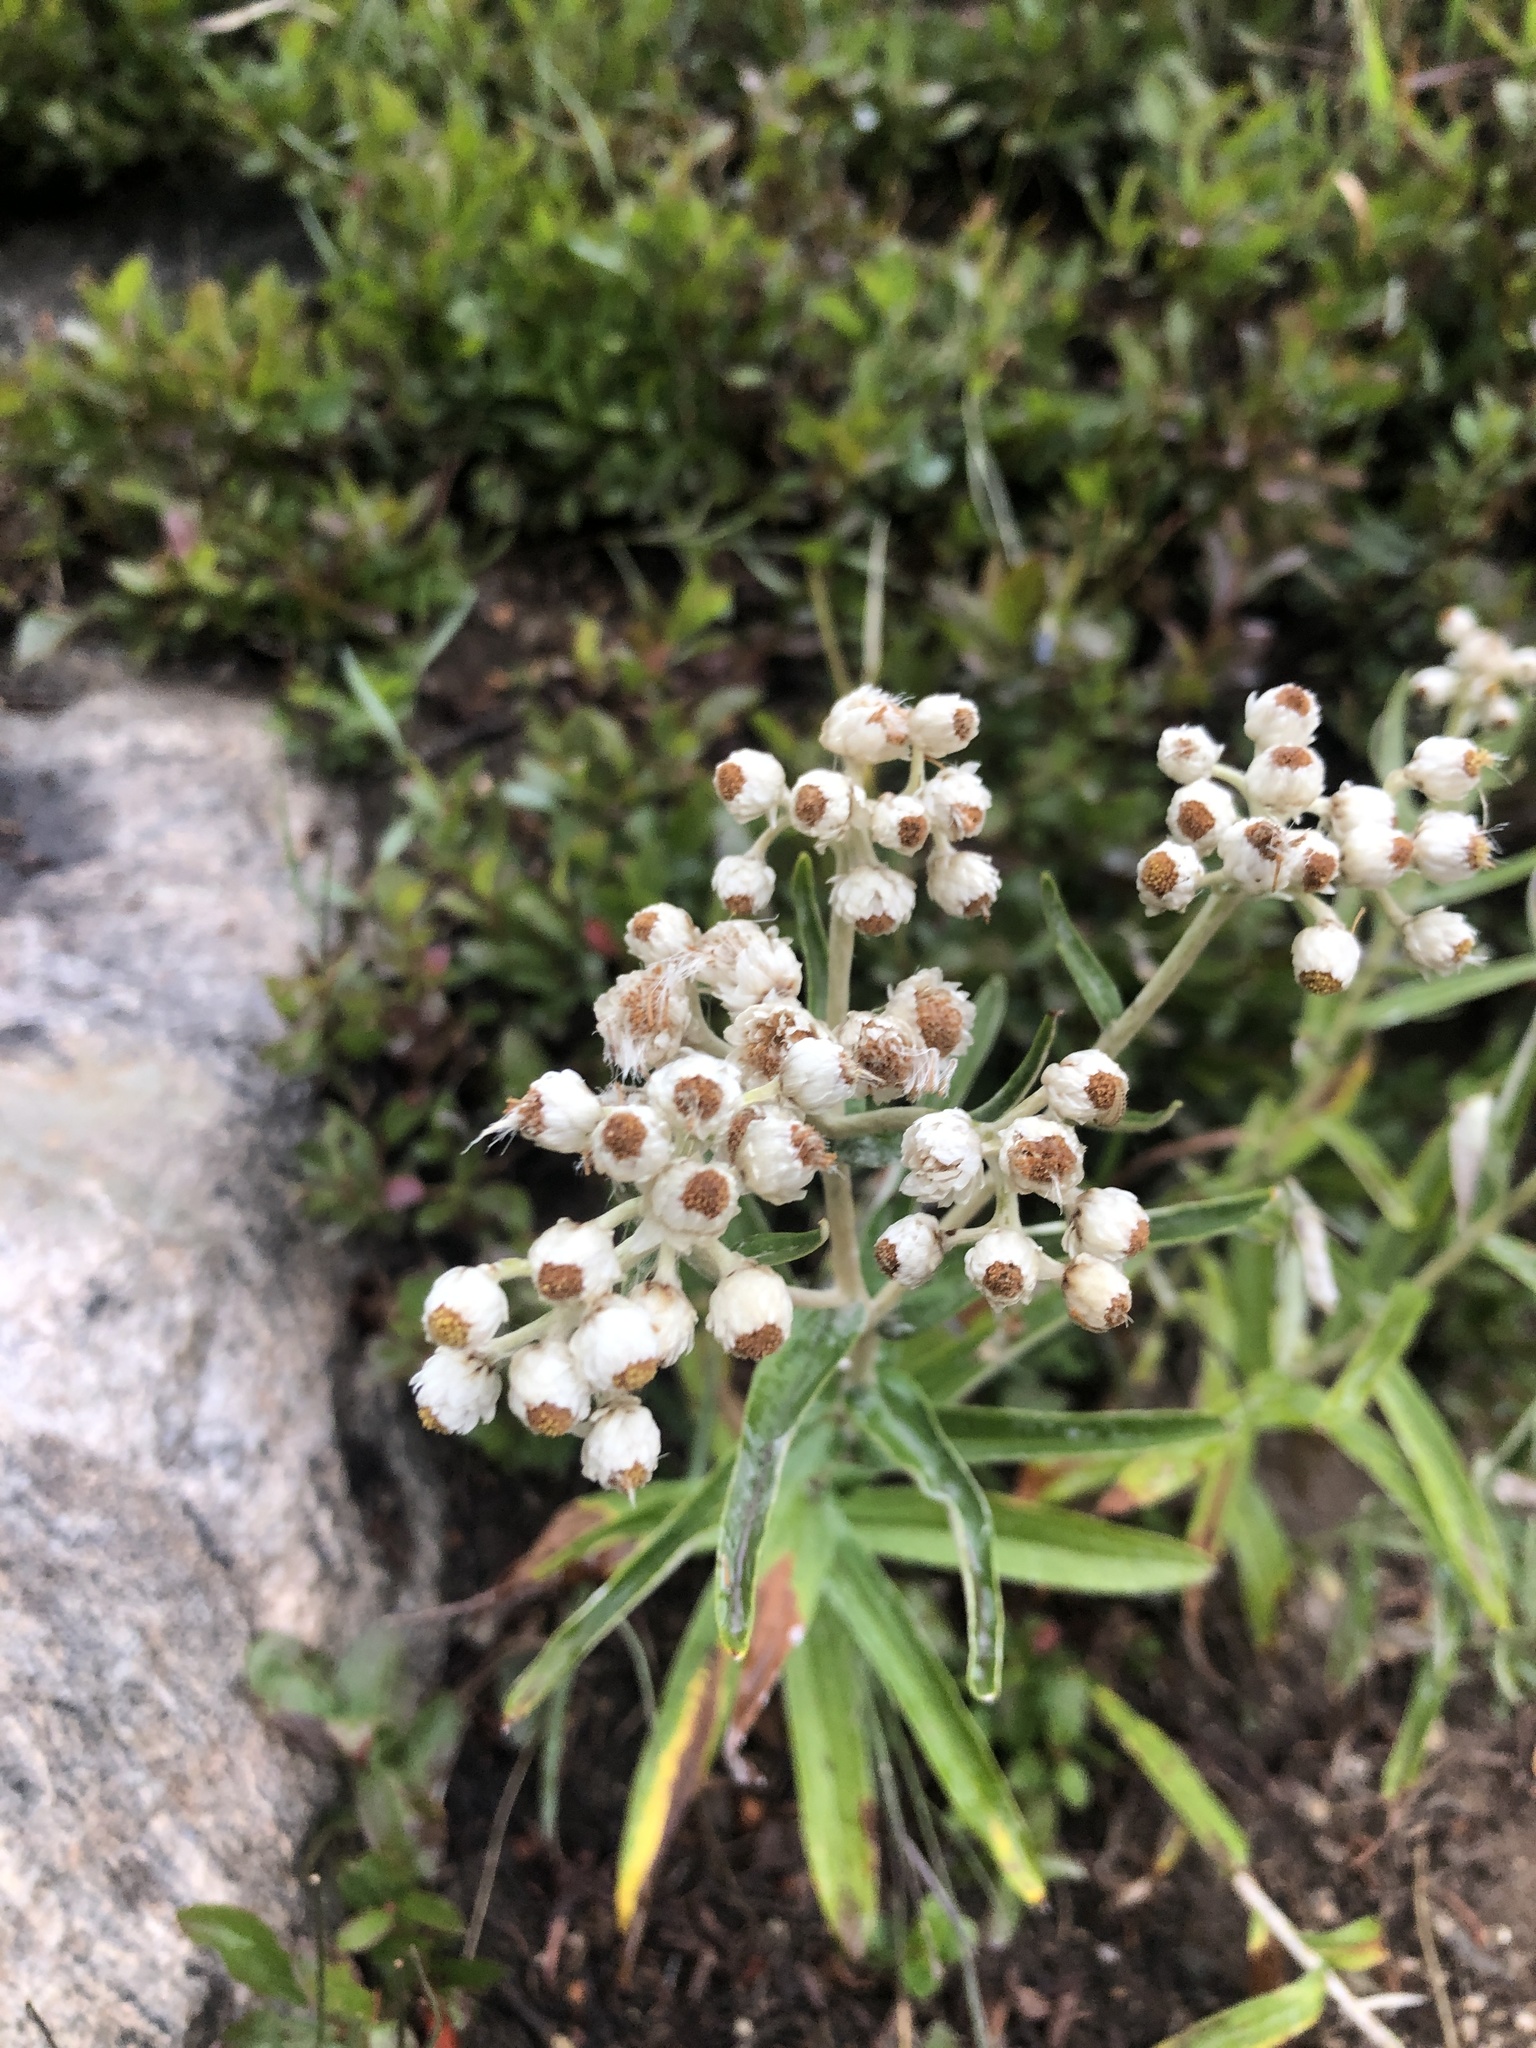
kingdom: Plantae
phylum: Tracheophyta
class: Magnoliopsida
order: Asterales
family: Asteraceae
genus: Anaphalis
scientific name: Anaphalis margaritacea
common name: Pearly everlasting
